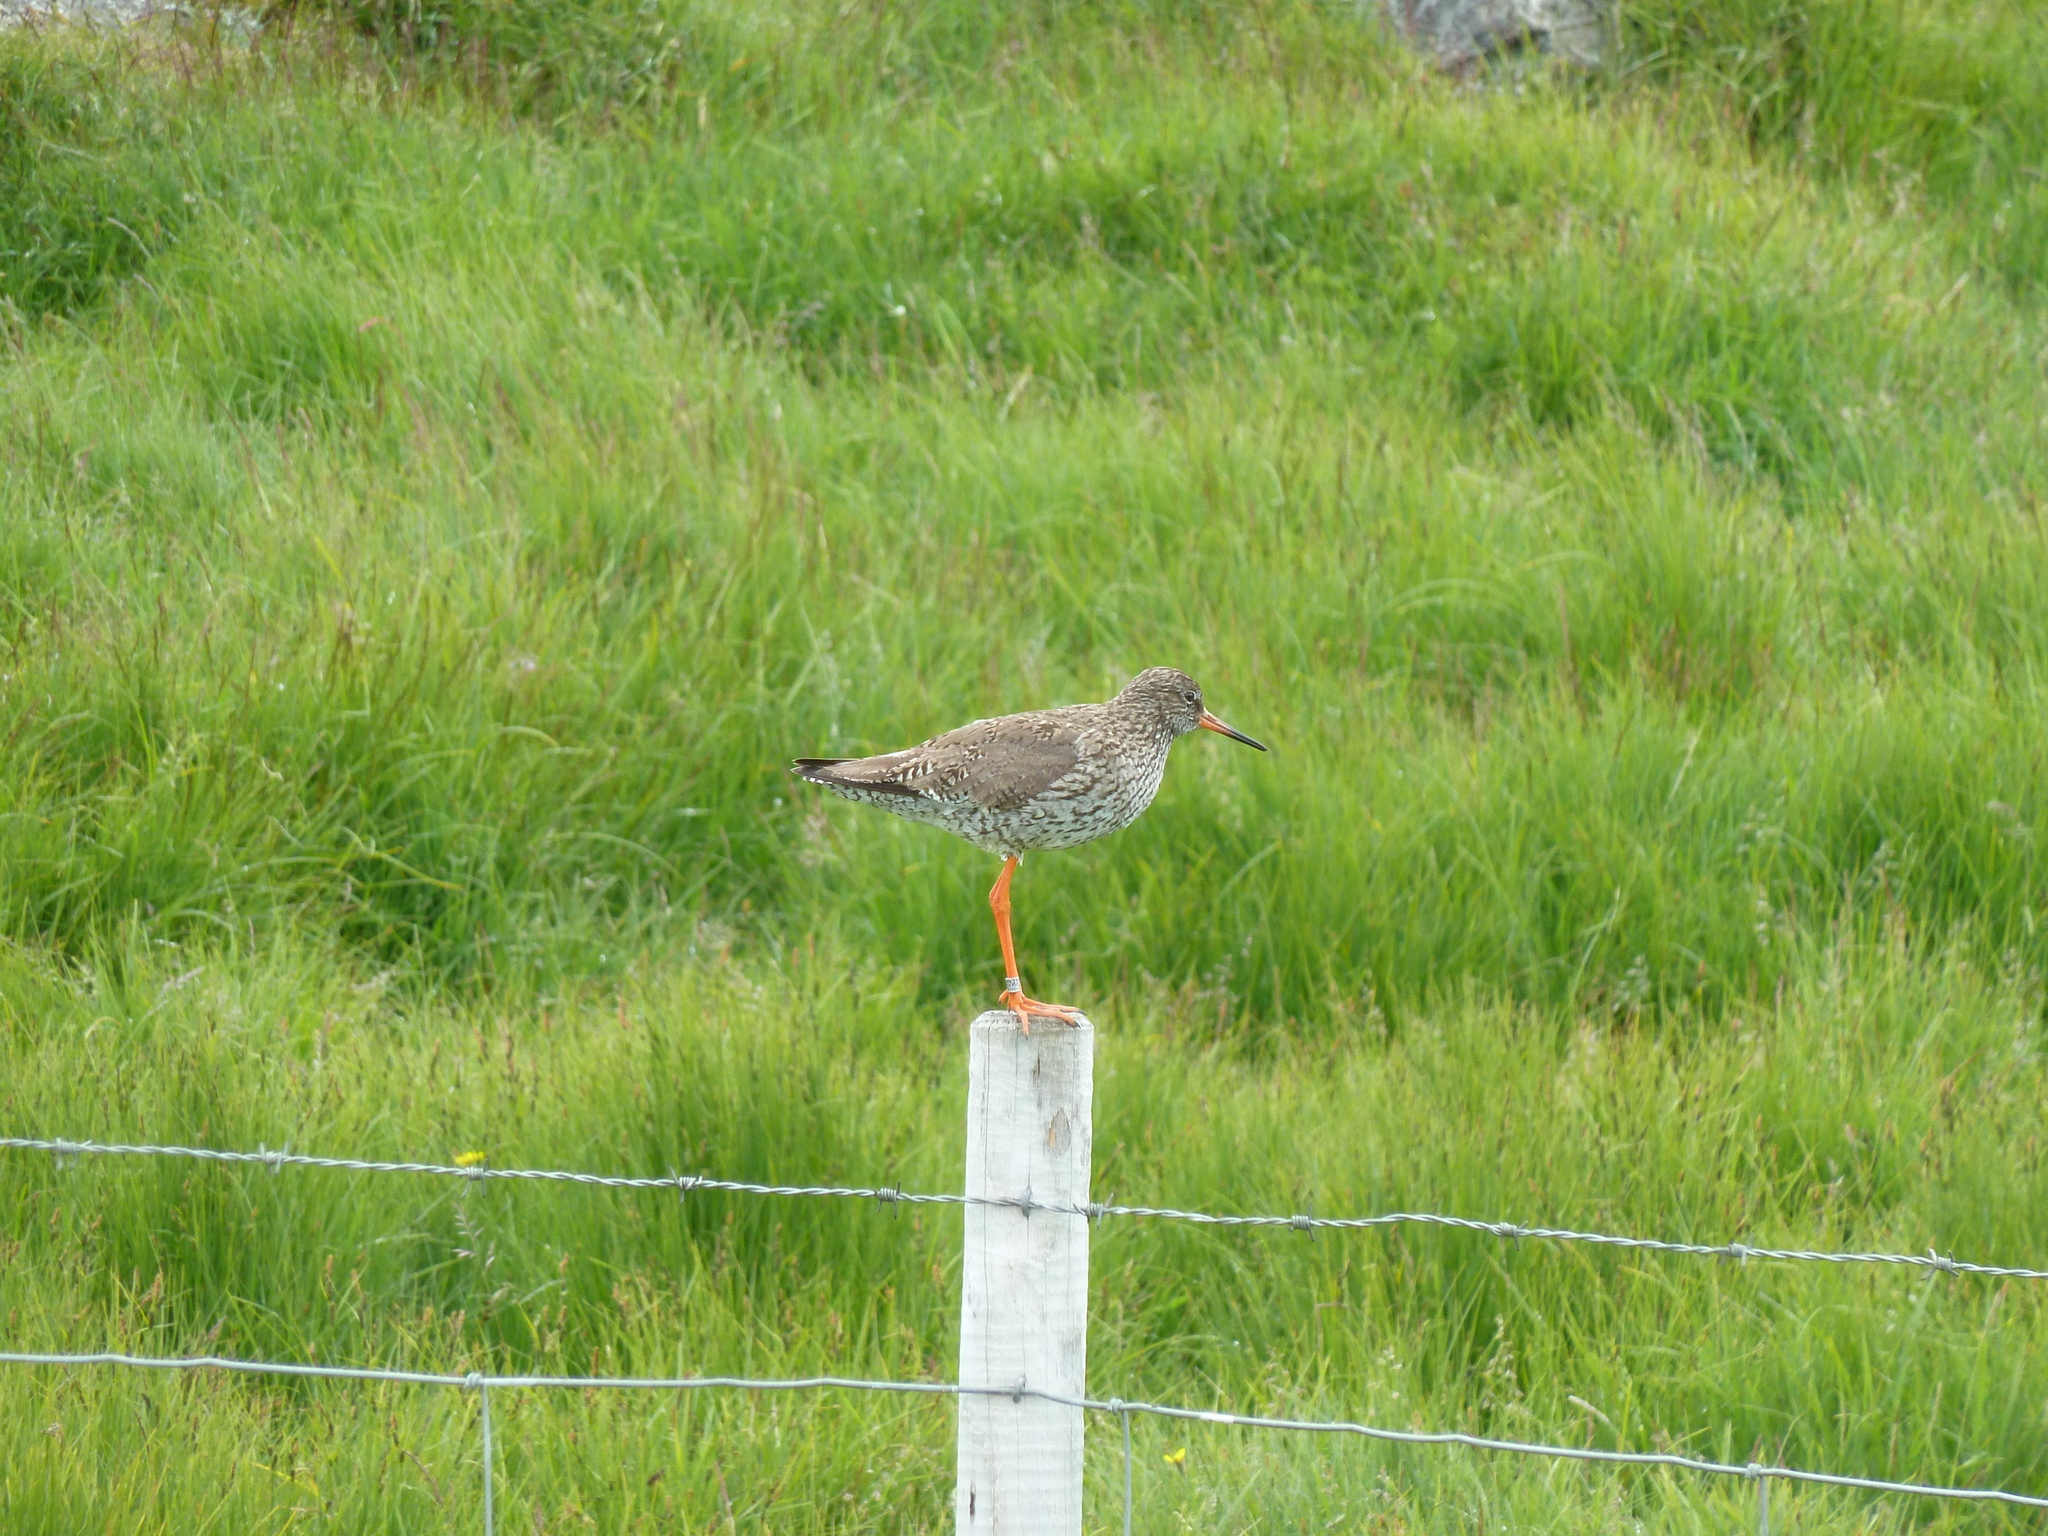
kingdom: Animalia
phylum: Chordata
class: Aves
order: Charadriiformes
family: Scolopacidae
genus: Tringa
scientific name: Tringa totanus
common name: Common redshank
